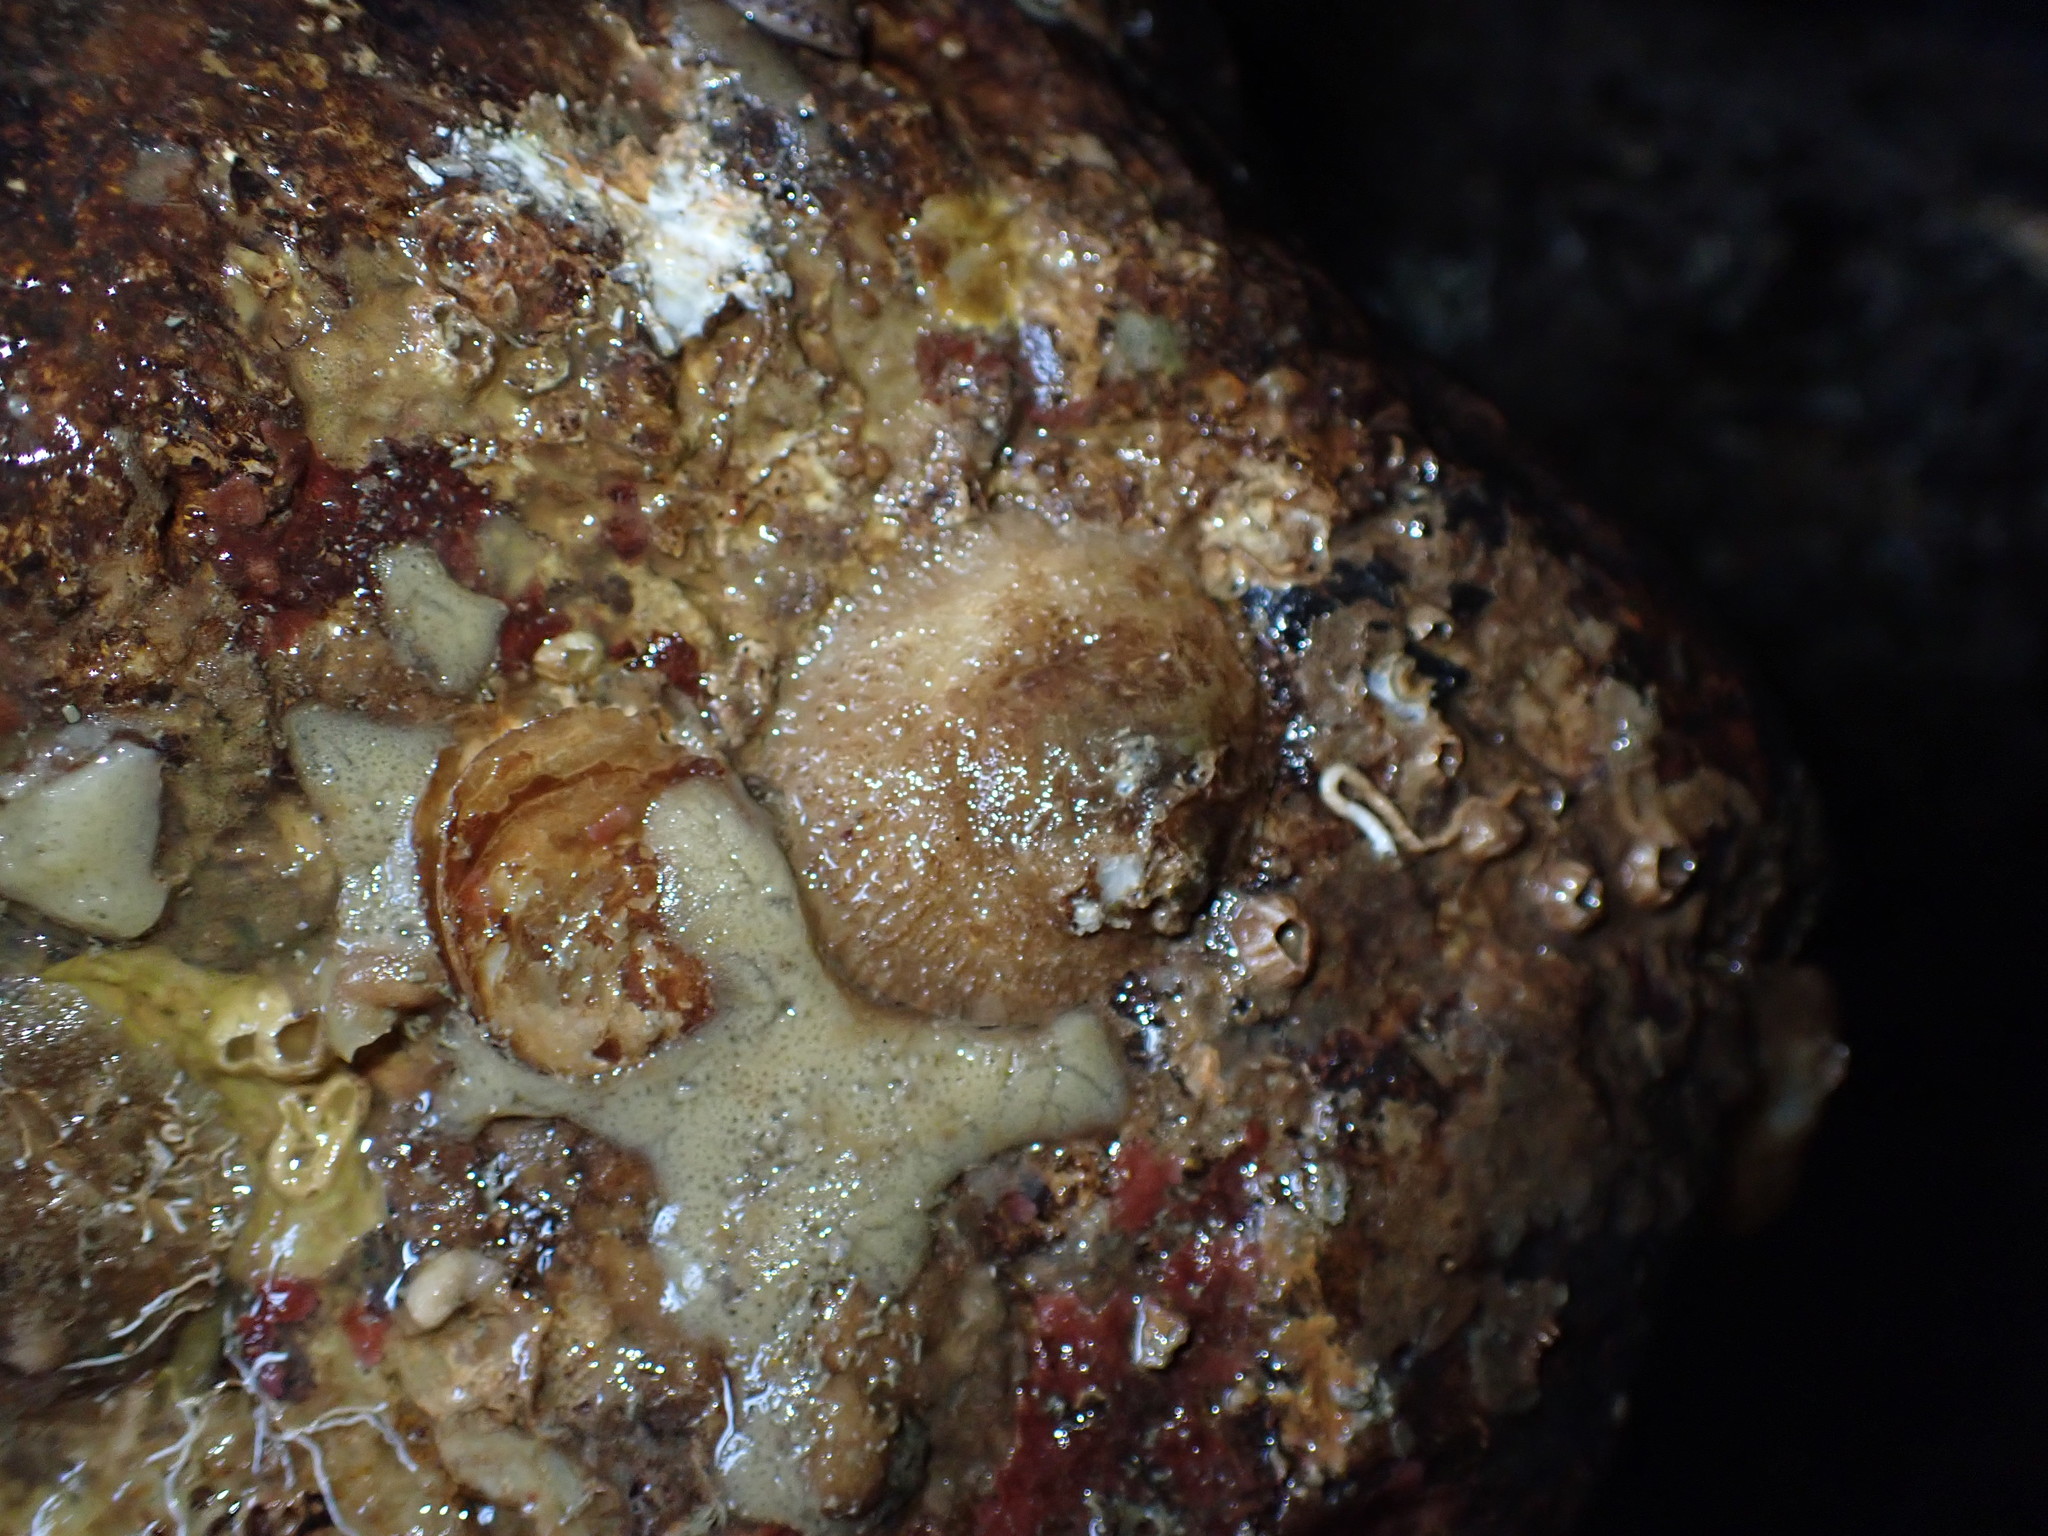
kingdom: Animalia
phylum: Mollusca
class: Bivalvia
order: Pectinida
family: Anomiidae
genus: Monia
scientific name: Monia zelandica
